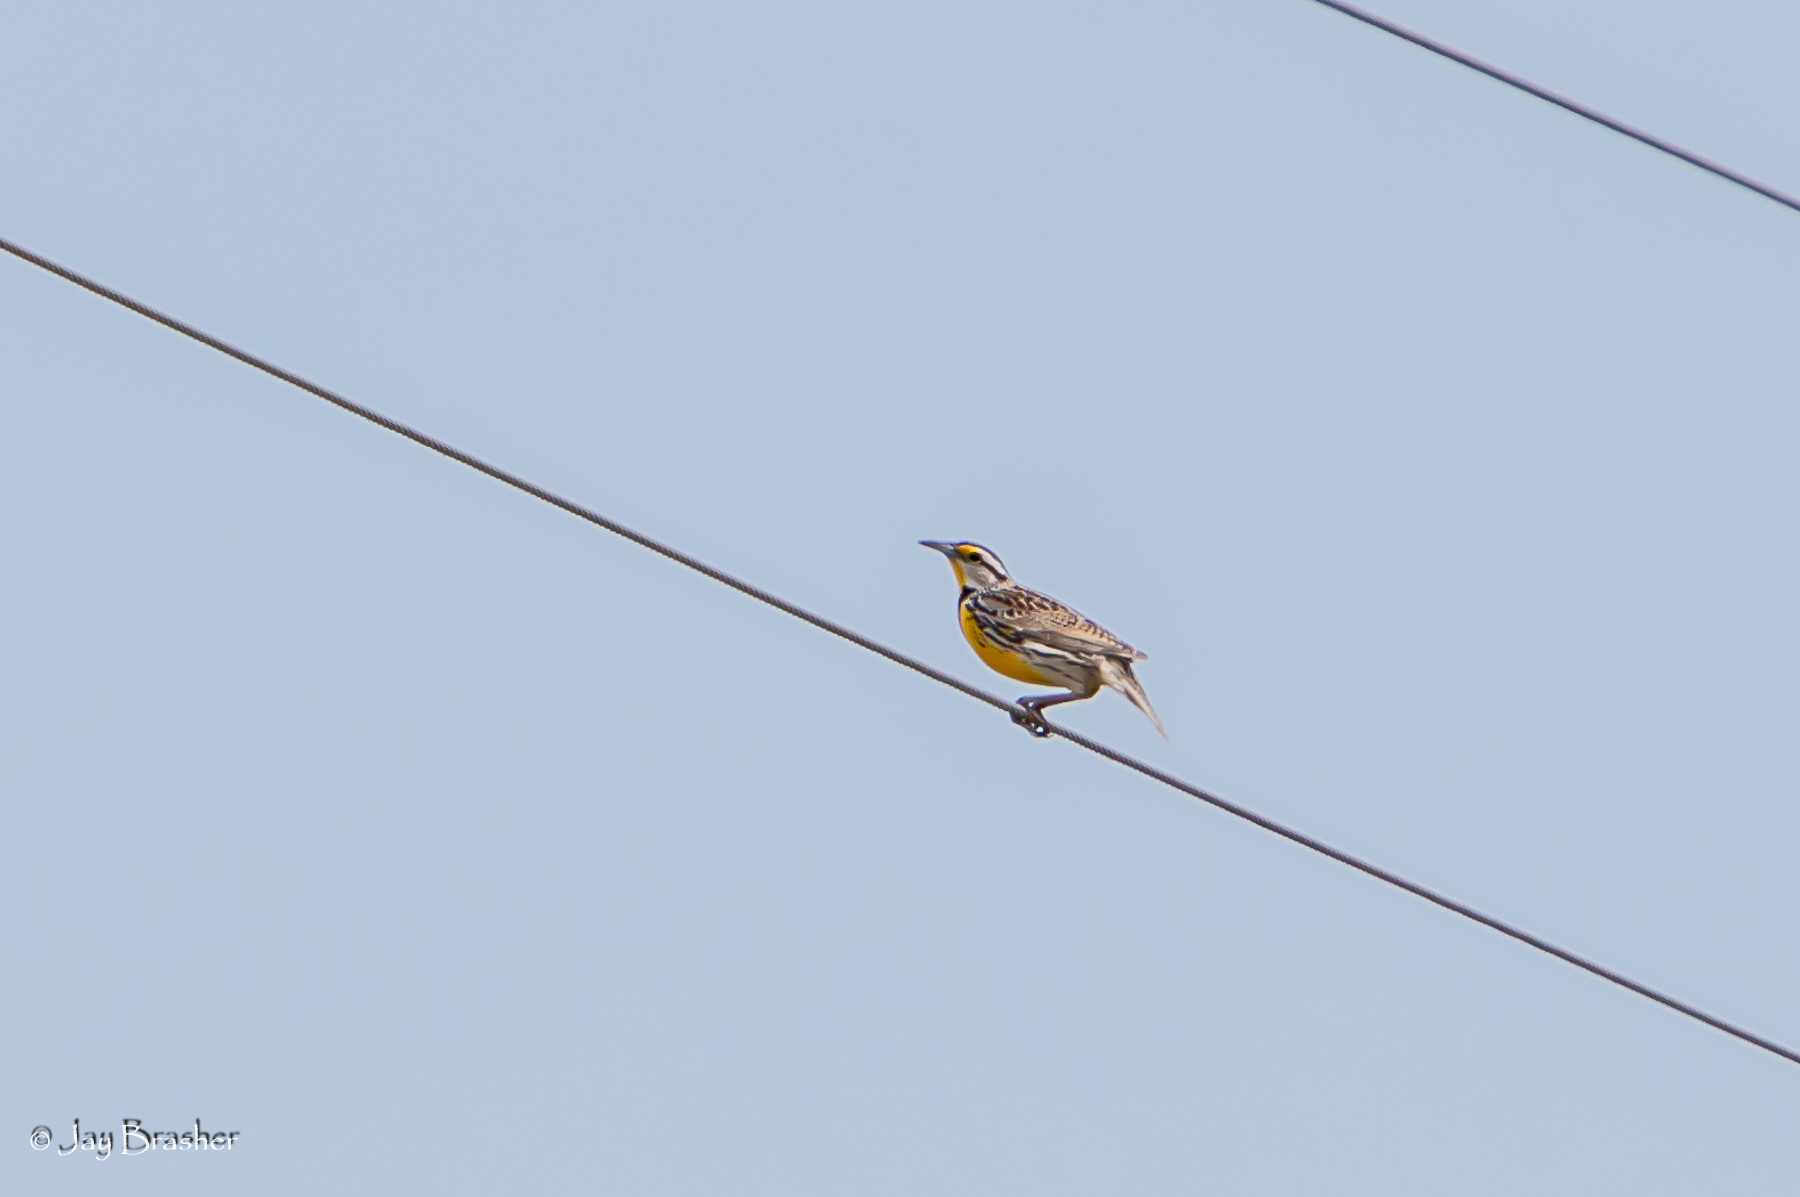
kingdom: Animalia
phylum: Chordata
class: Aves
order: Passeriformes
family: Icteridae
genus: Sturnella
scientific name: Sturnella magna
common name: Eastern meadowlark
